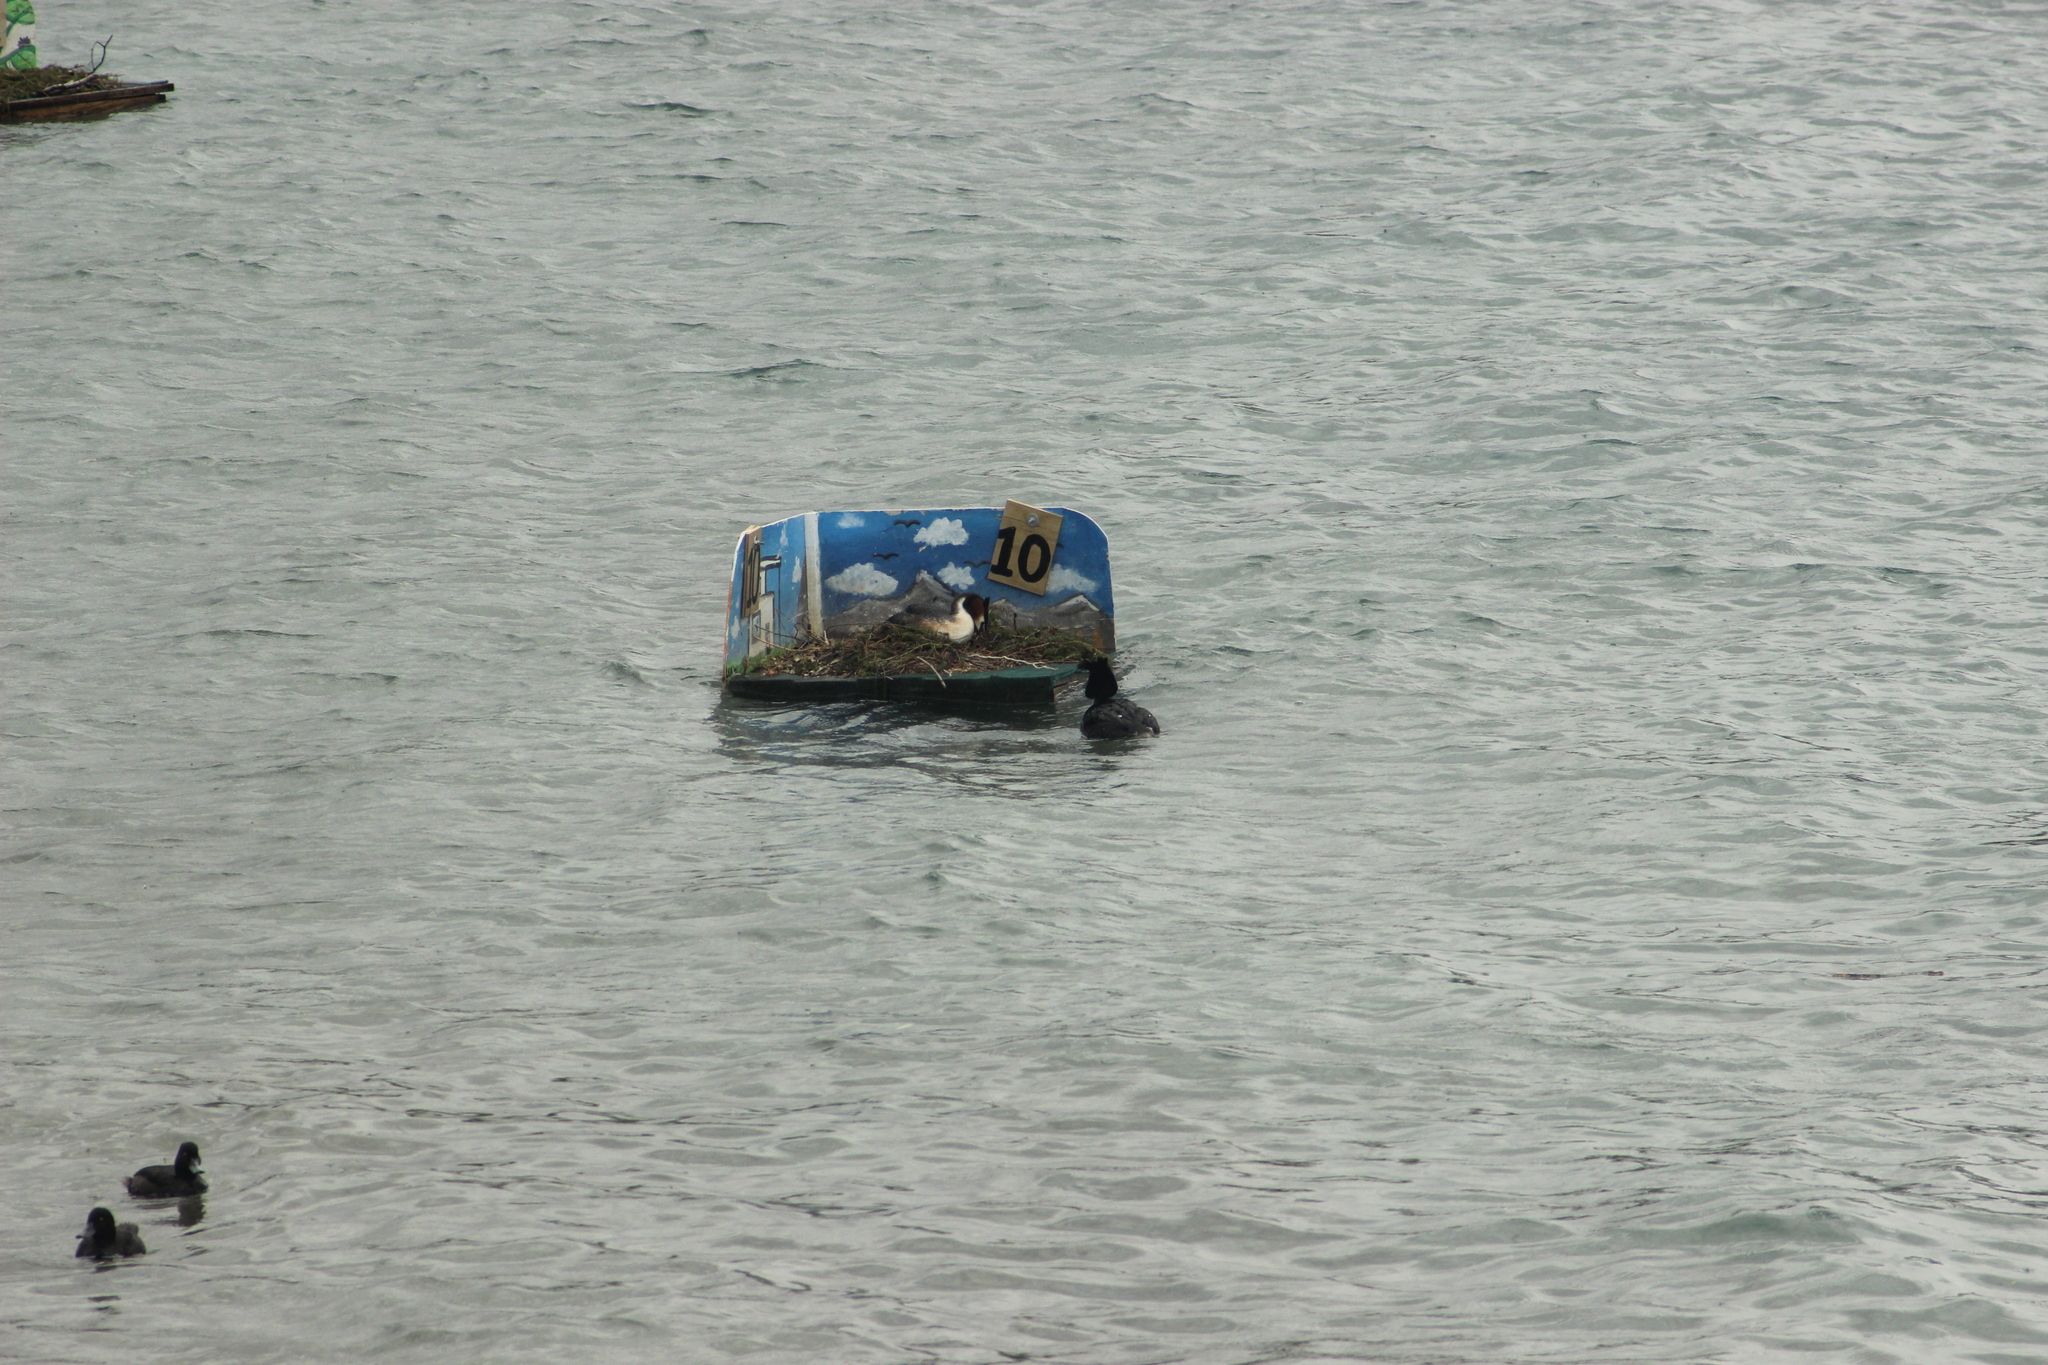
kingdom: Animalia
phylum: Chordata
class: Aves
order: Podicipediformes
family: Podicipedidae
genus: Podiceps
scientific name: Podiceps cristatus
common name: Great crested grebe
